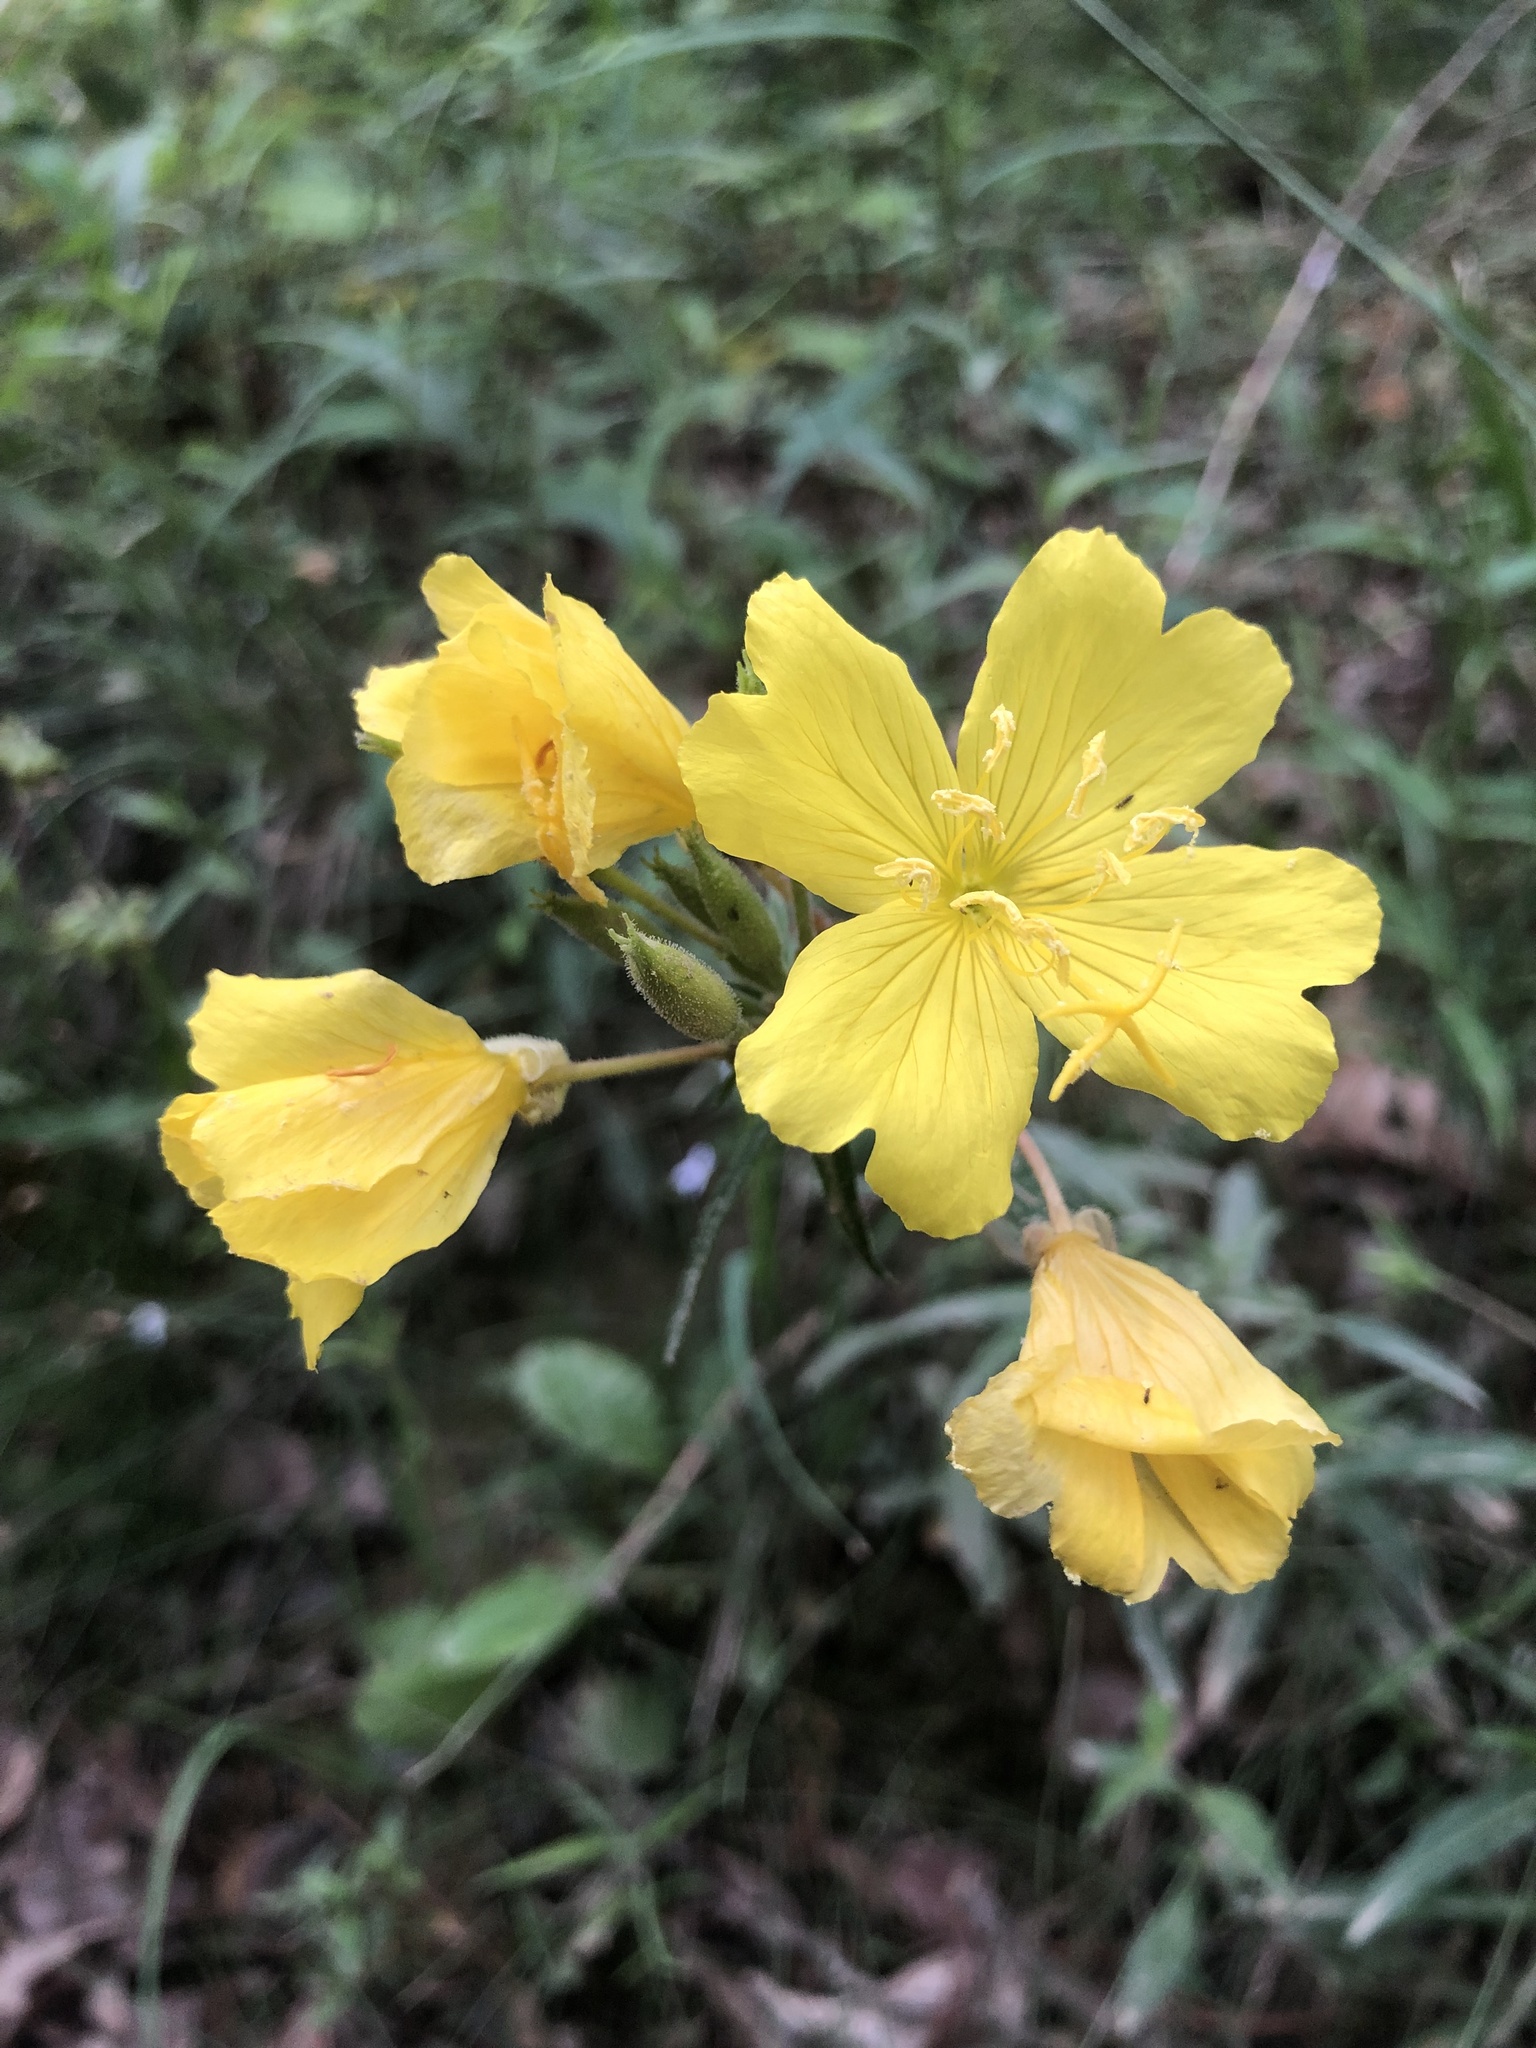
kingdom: Plantae
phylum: Tracheophyta
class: Magnoliopsida
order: Myrtales
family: Onagraceae
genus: Oenothera
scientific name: Oenothera fruticosa
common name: Southern sundrops
